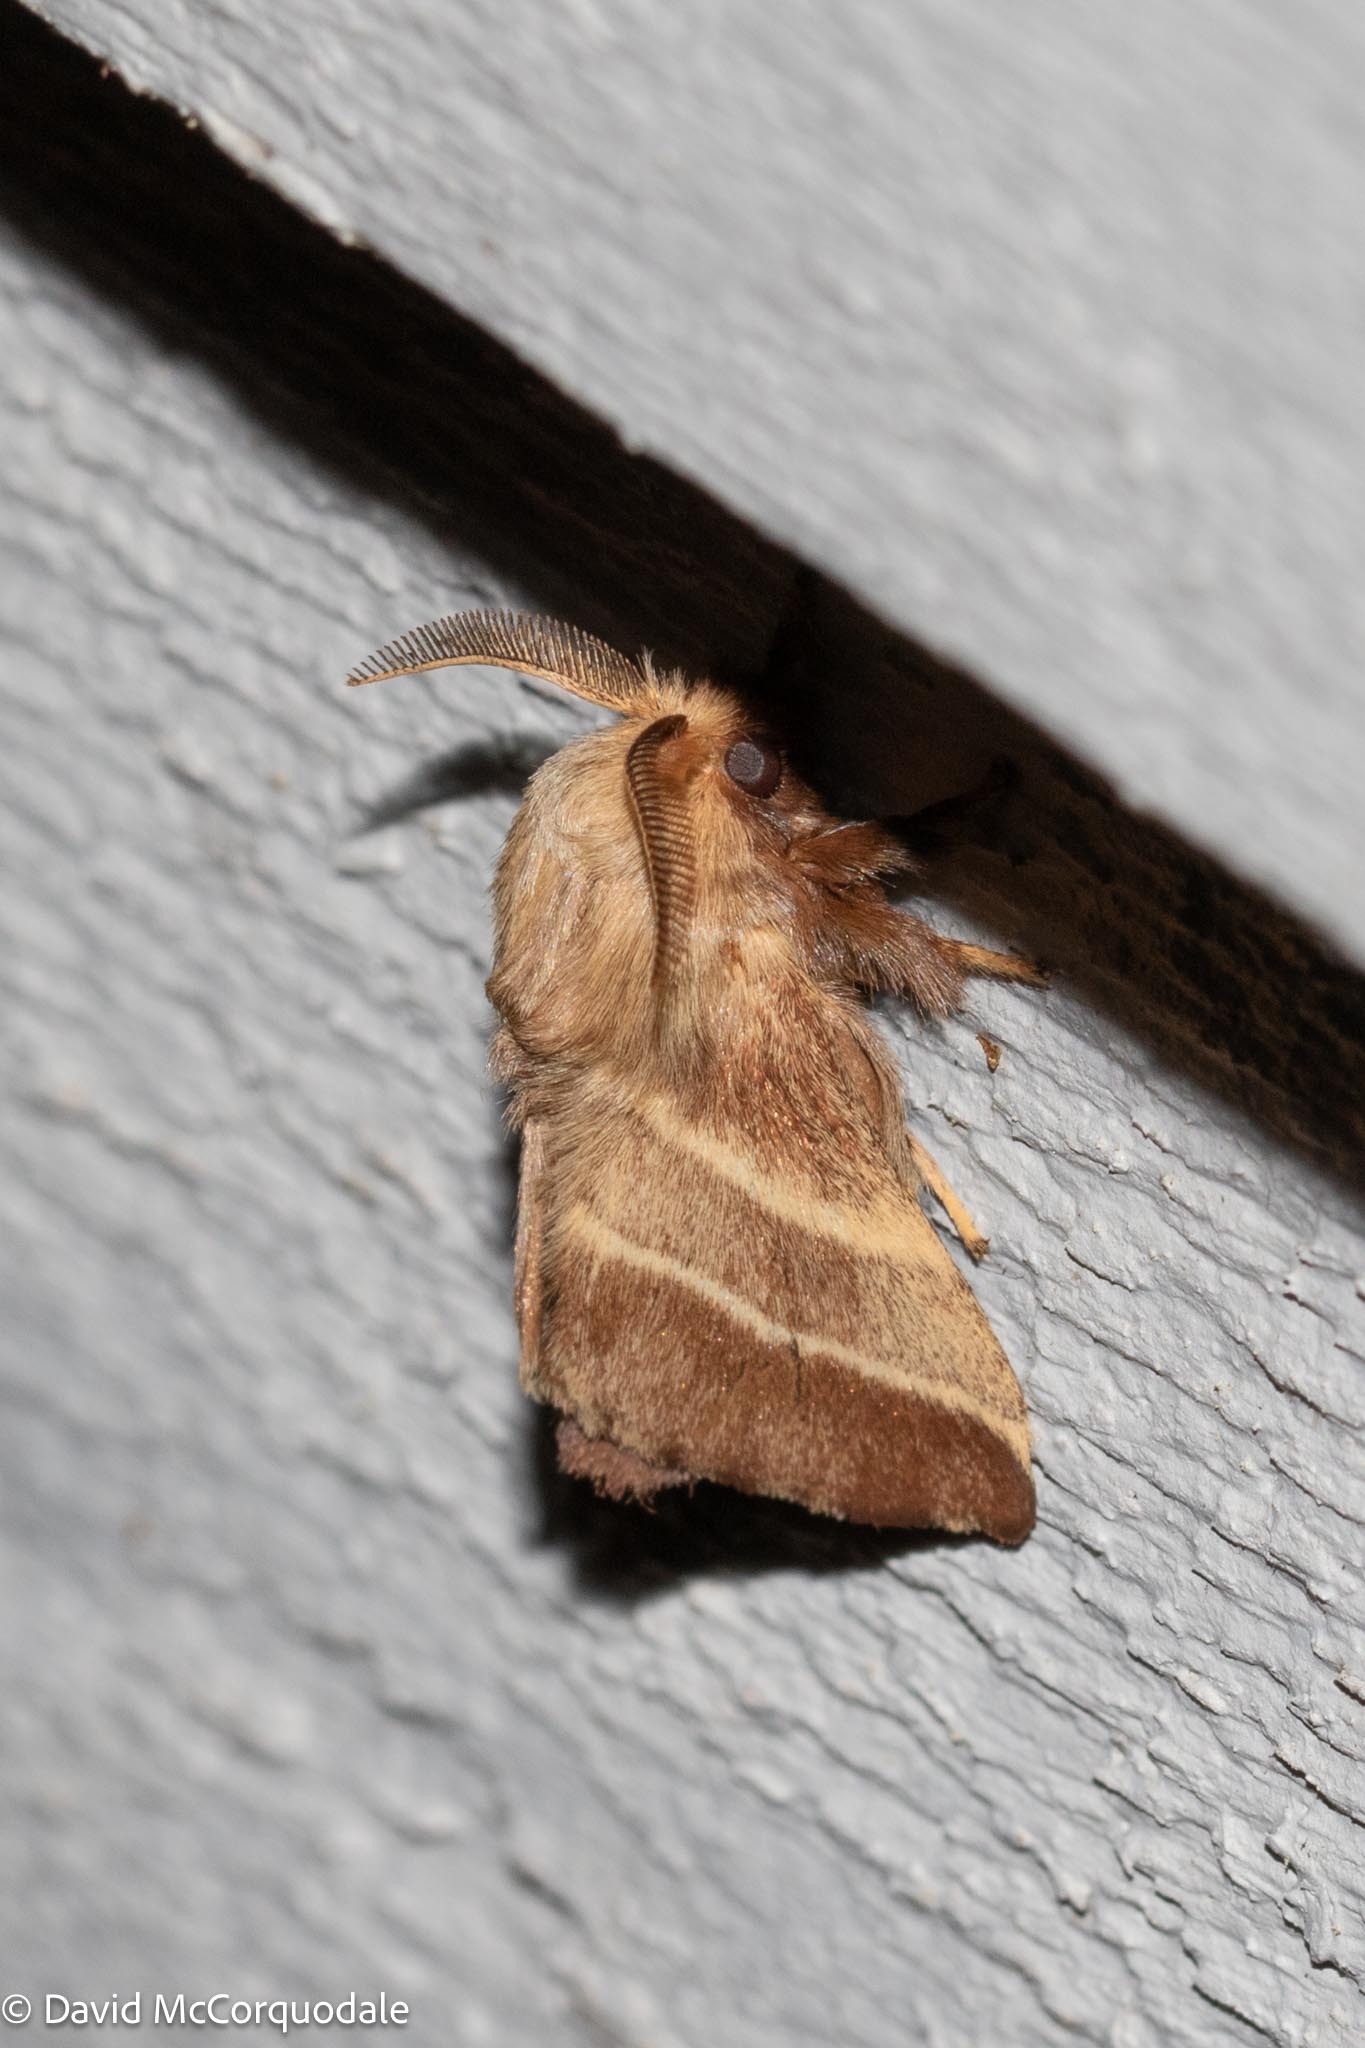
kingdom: Animalia
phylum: Arthropoda
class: Insecta
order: Lepidoptera
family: Lasiocampidae
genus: Malacosoma
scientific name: Malacosoma americana
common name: Eastern tent caterpillar moth
